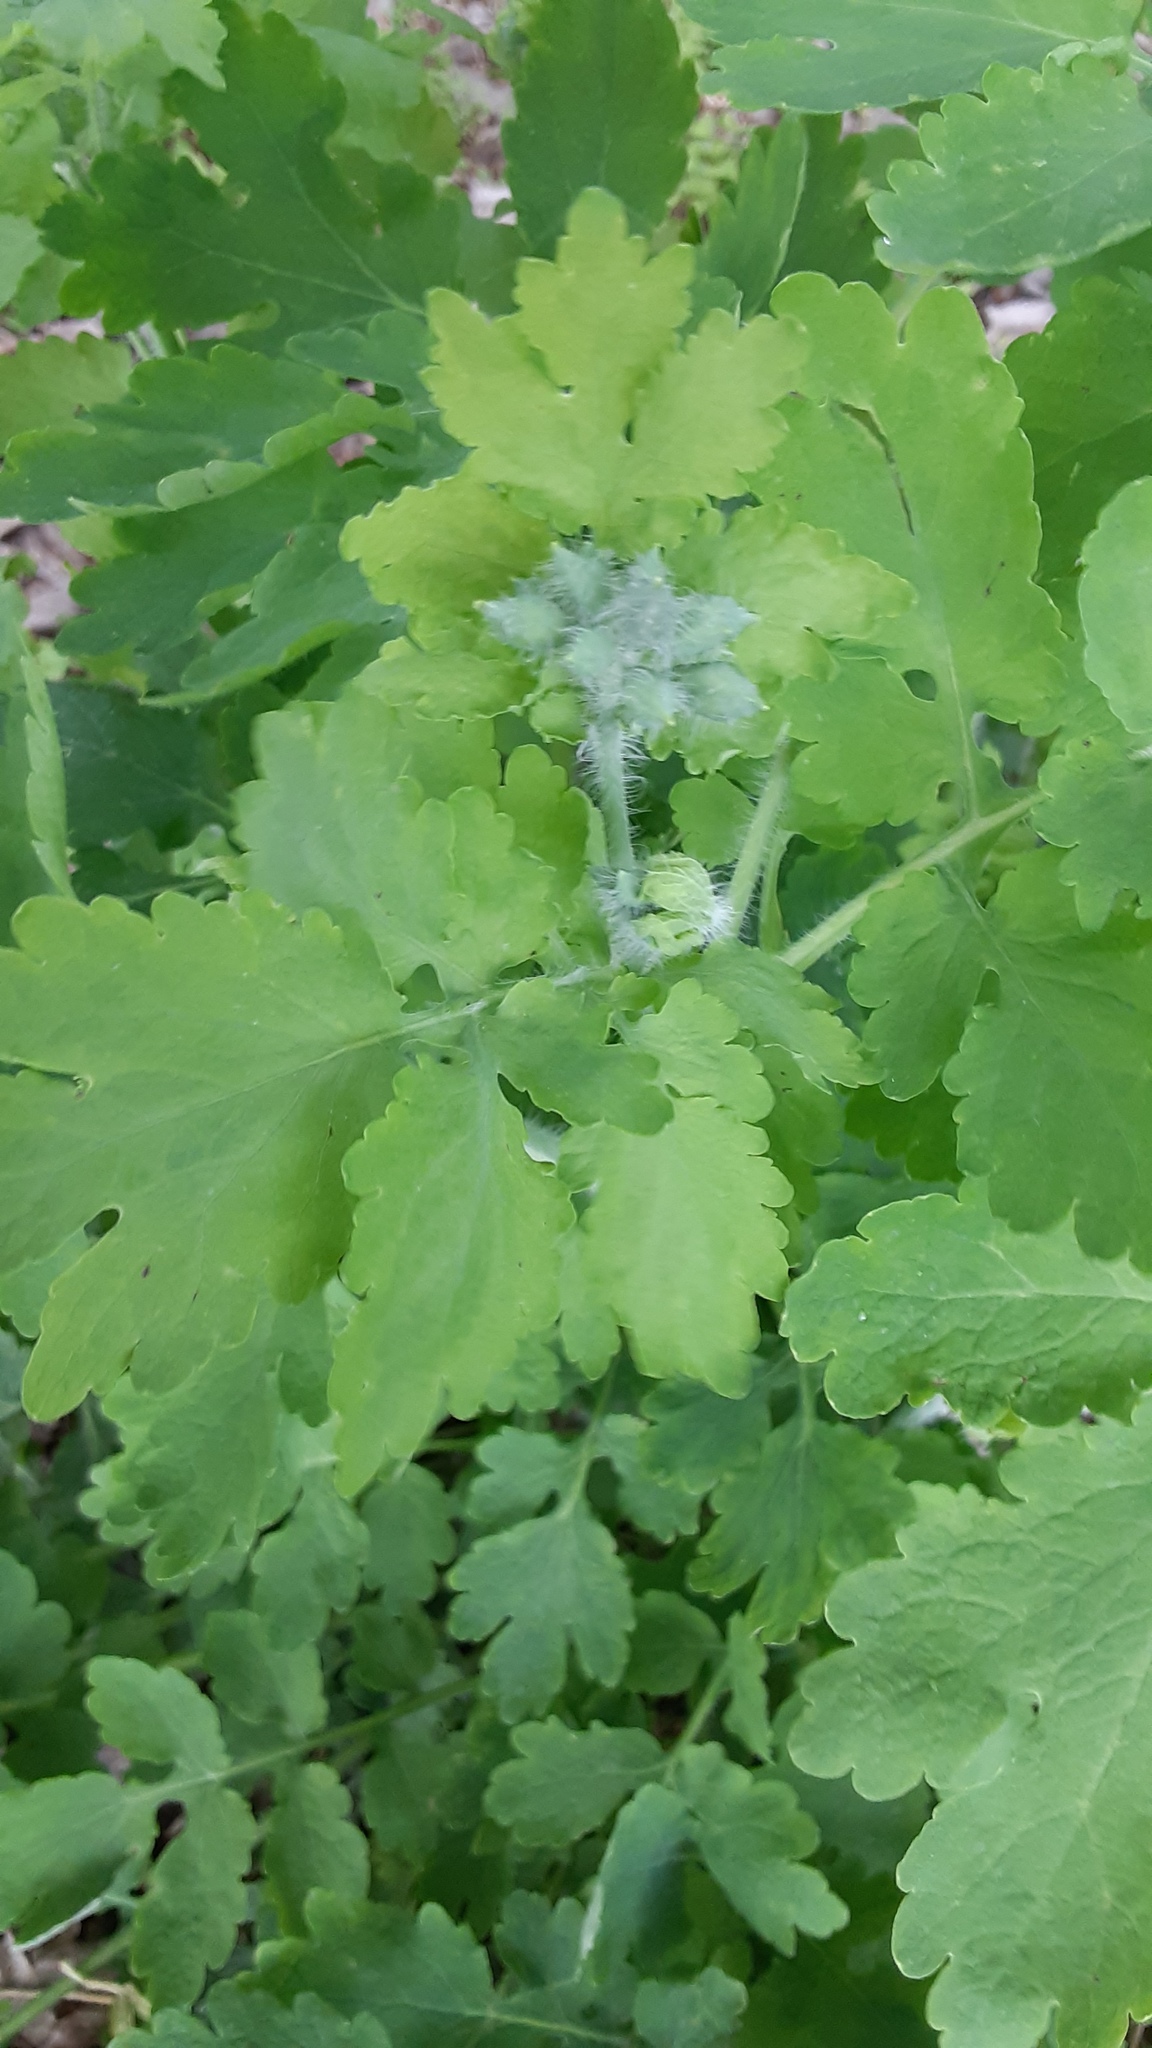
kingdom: Plantae
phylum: Tracheophyta
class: Magnoliopsida
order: Ranunculales
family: Papaveraceae
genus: Chelidonium
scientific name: Chelidonium majus
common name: Greater celandine
